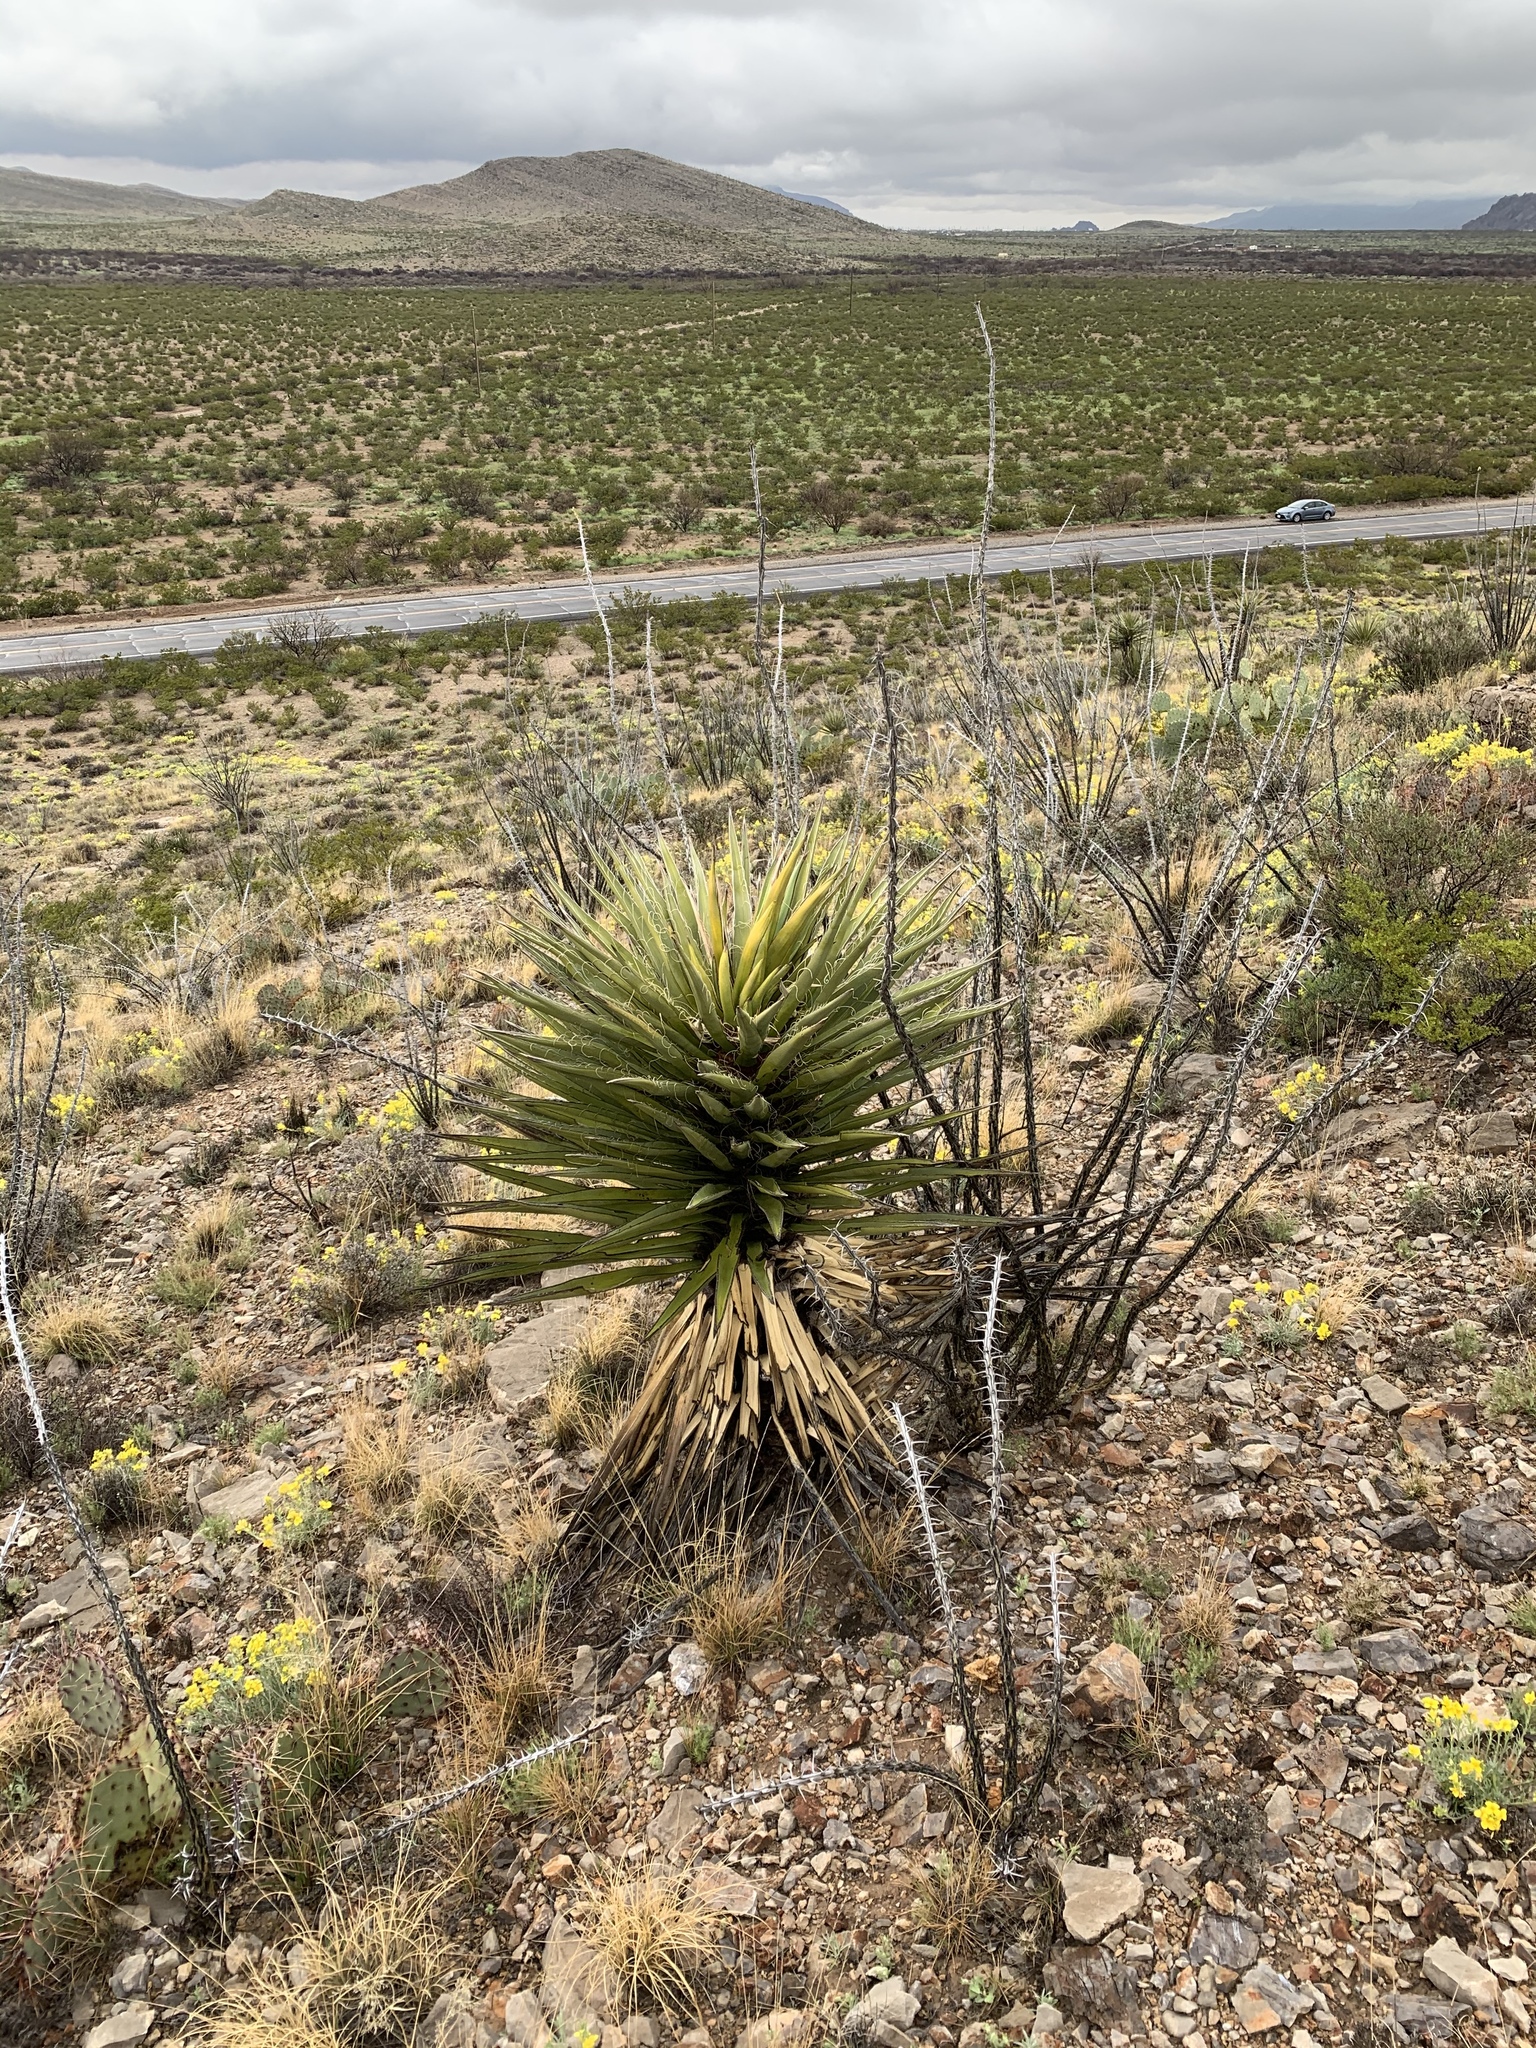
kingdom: Plantae
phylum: Tracheophyta
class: Liliopsida
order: Asparagales
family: Asparagaceae
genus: Yucca
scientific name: Yucca treculiana
